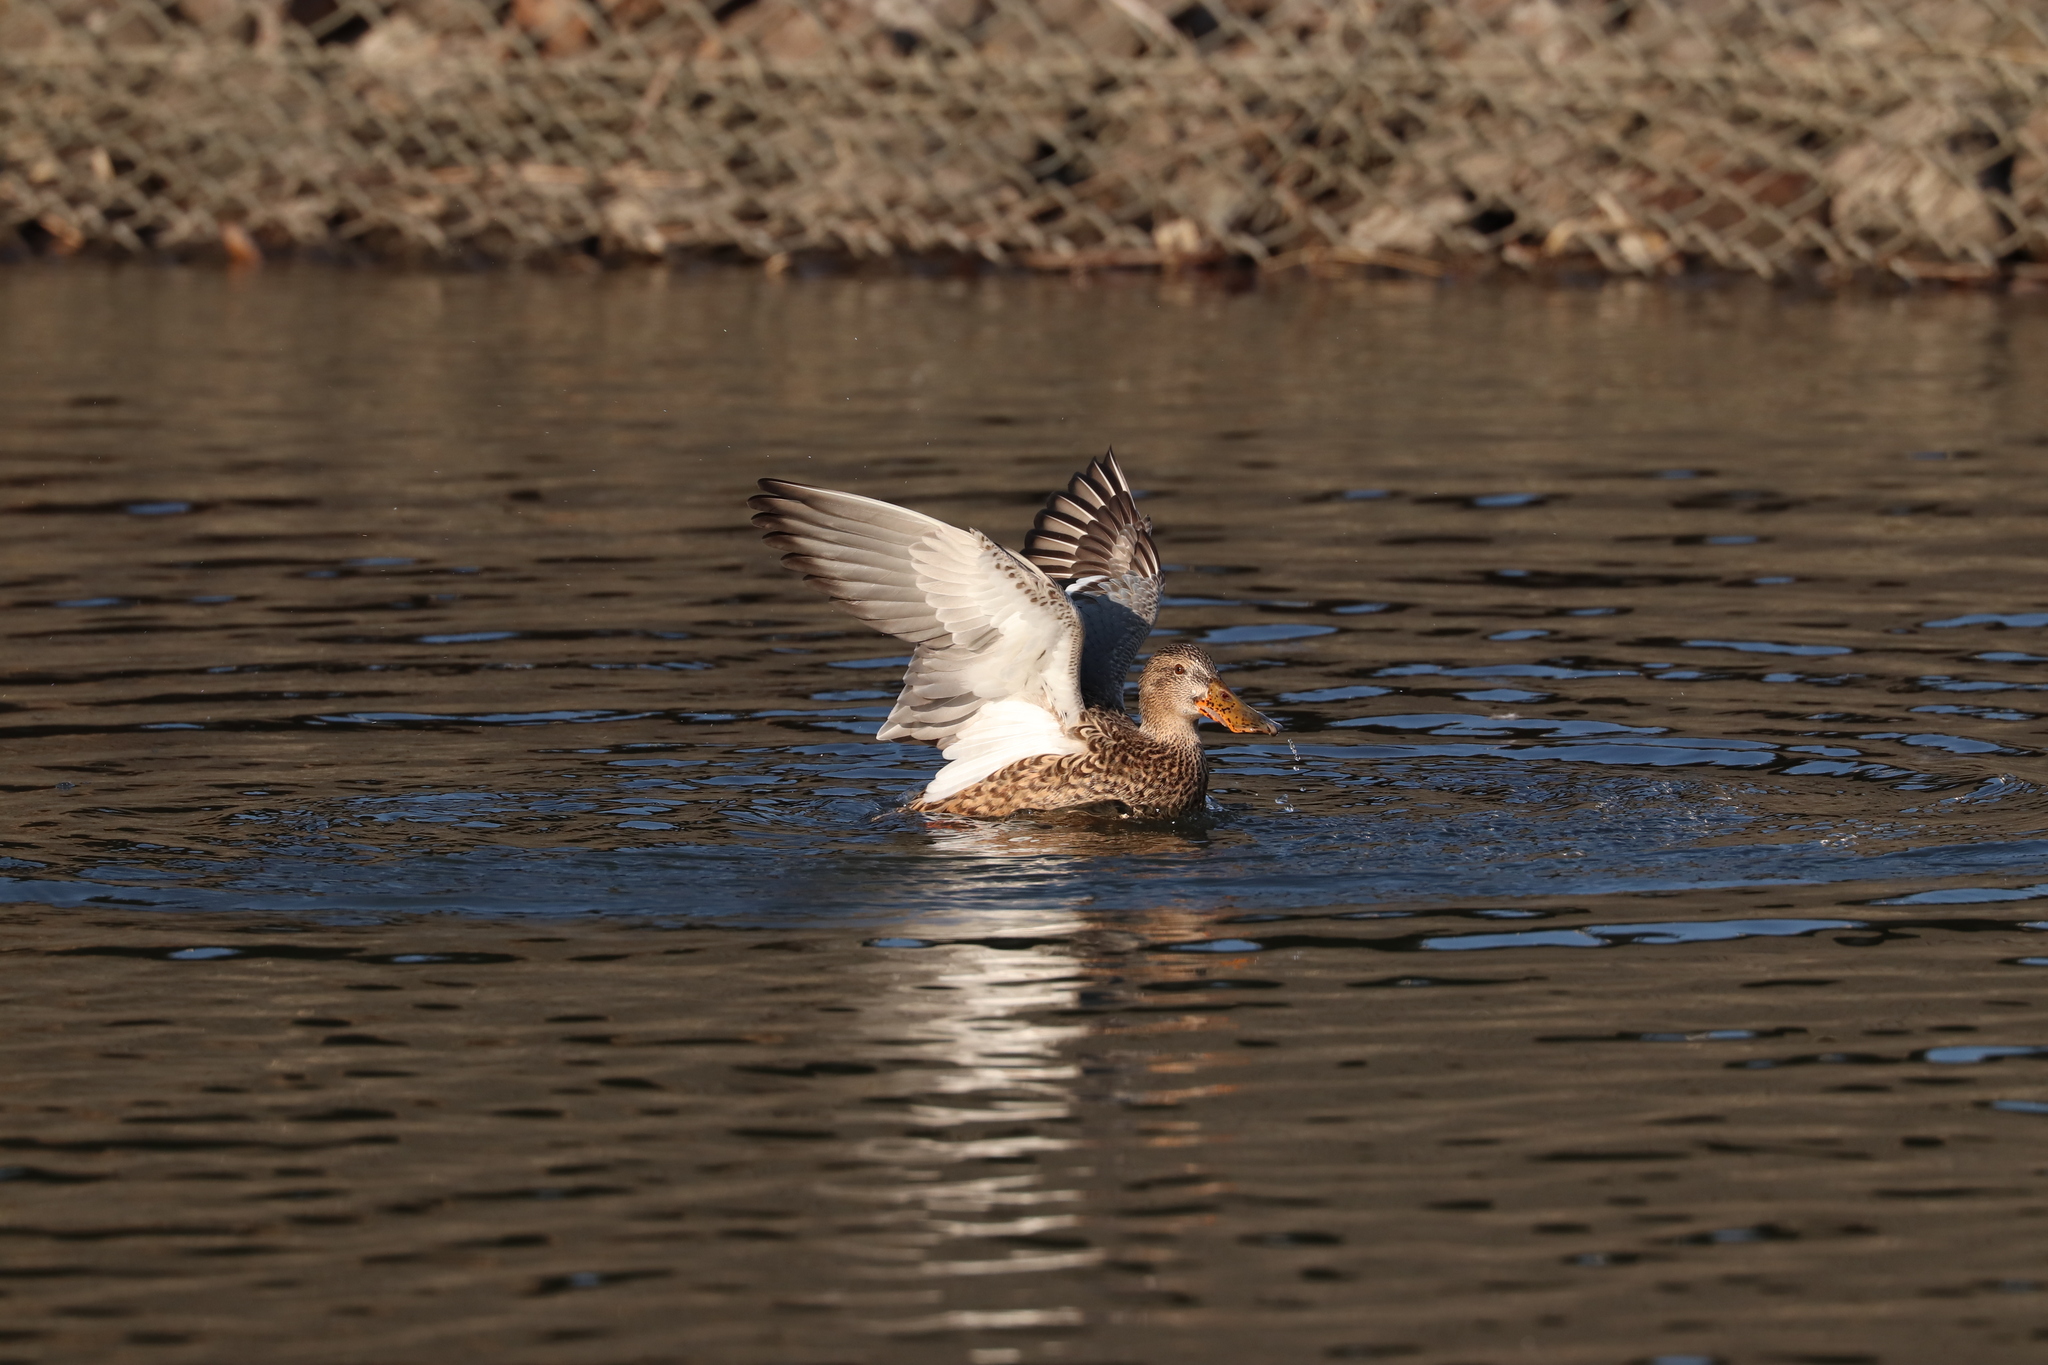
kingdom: Animalia
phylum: Chordata
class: Aves
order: Anseriformes
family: Anatidae
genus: Spatula
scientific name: Spatula clypeata
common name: Northern shoveler
